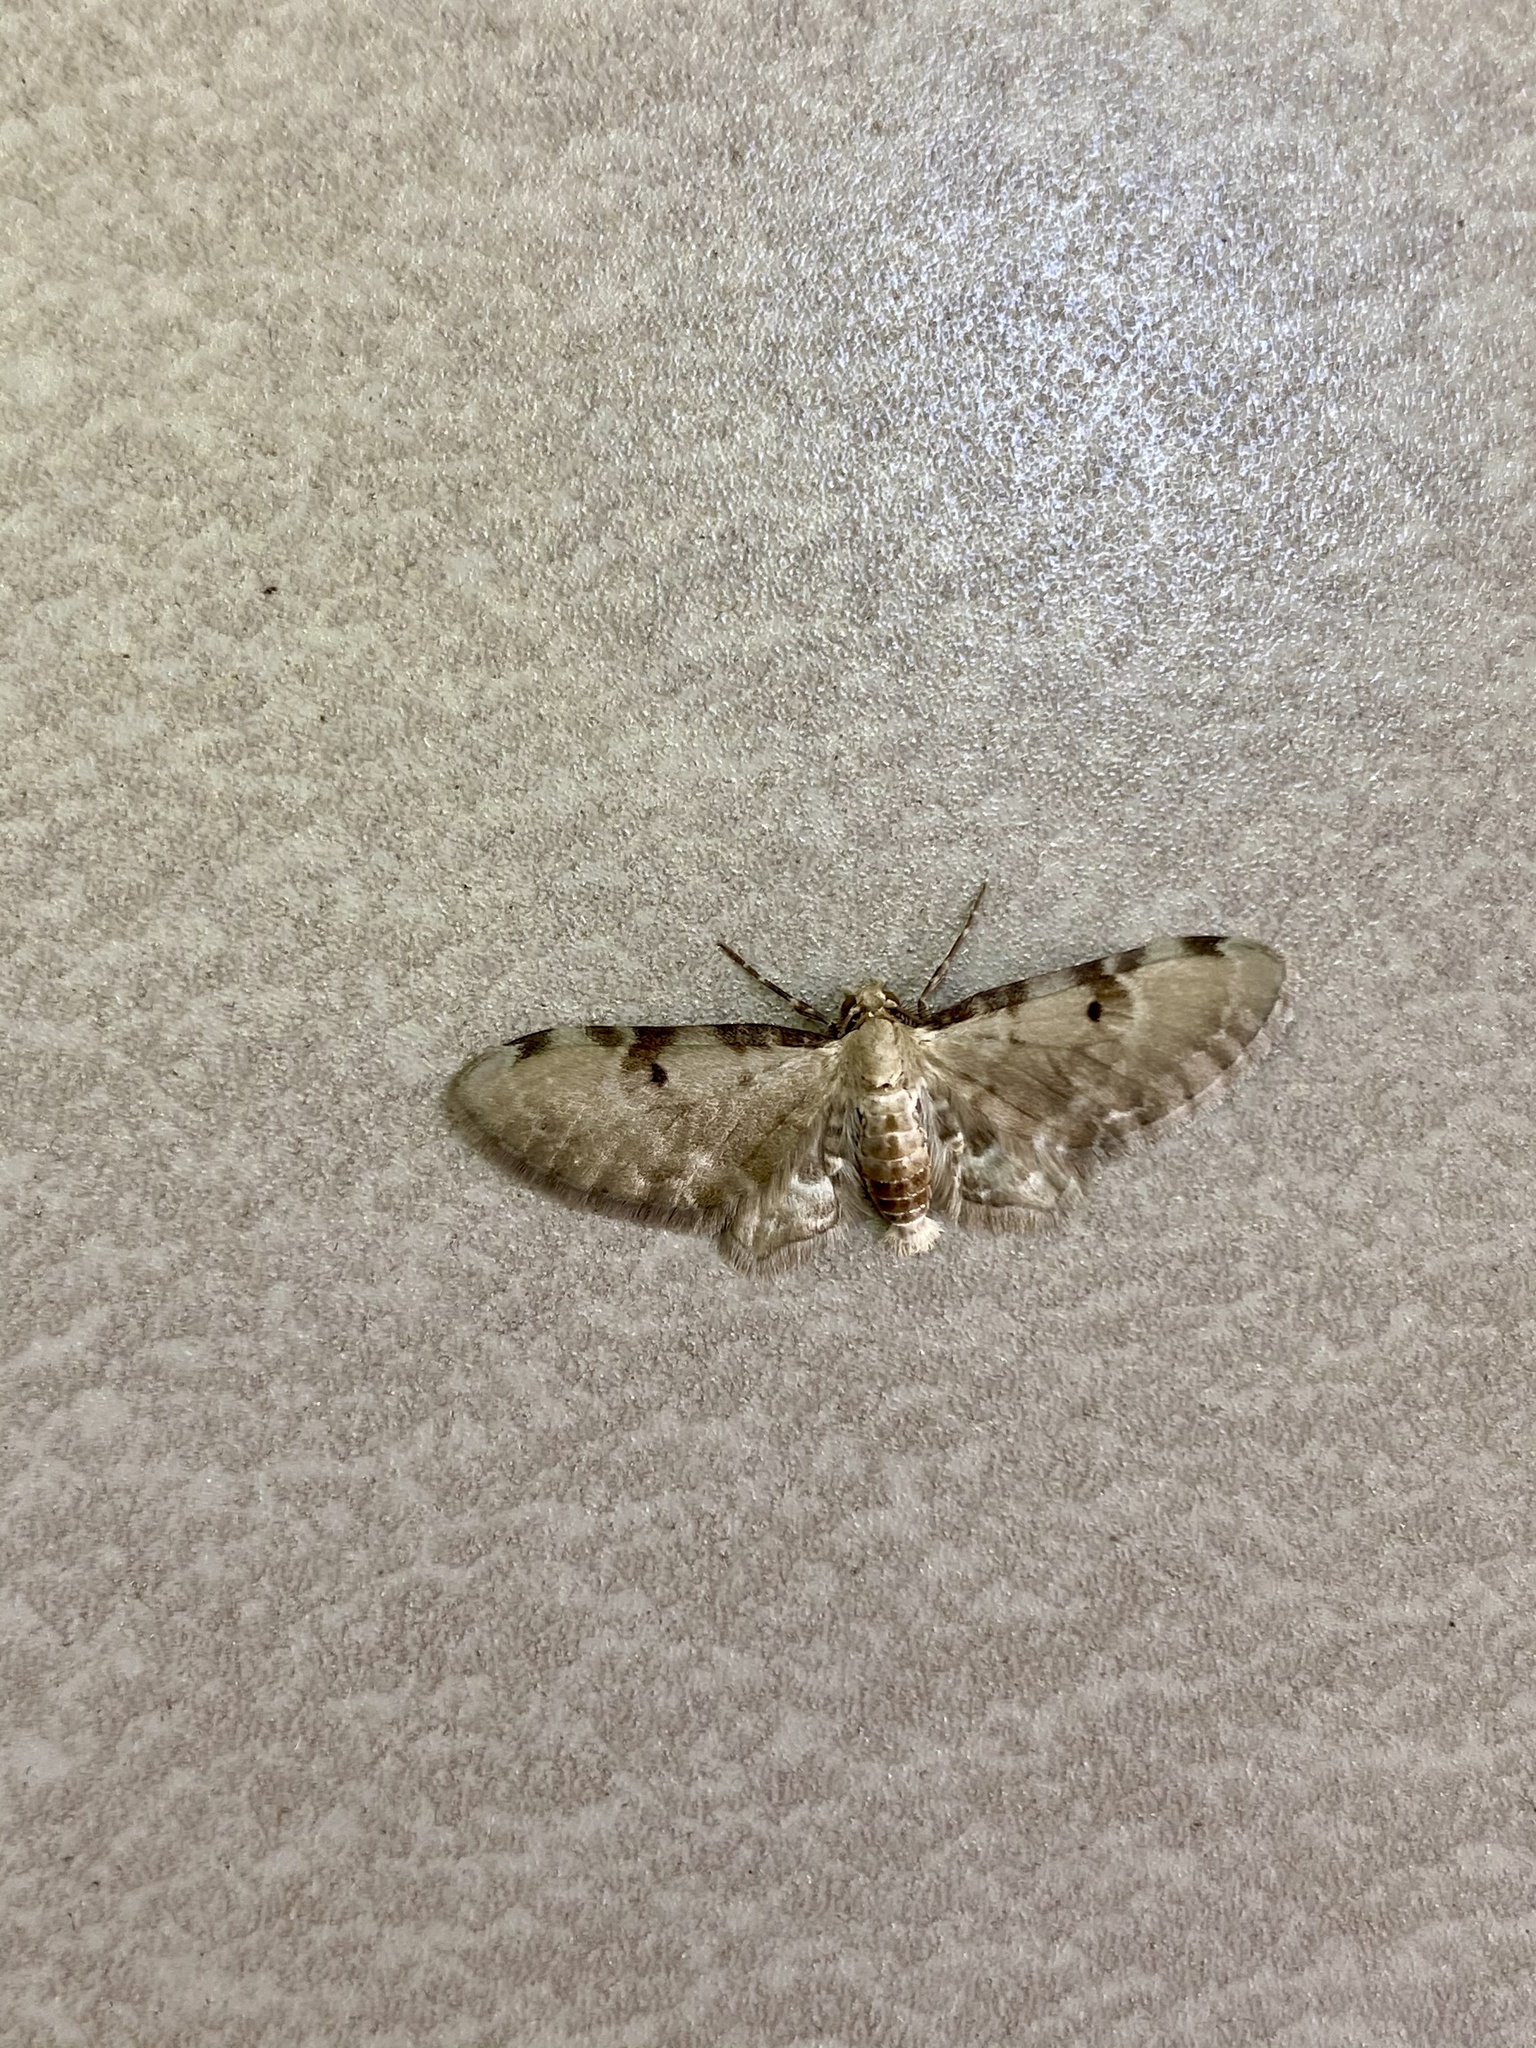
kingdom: Animalia
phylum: Arthropoda
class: Insecta
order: Lepidoptera
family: Geometridae
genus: Brabira
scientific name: Brabira artemidora
